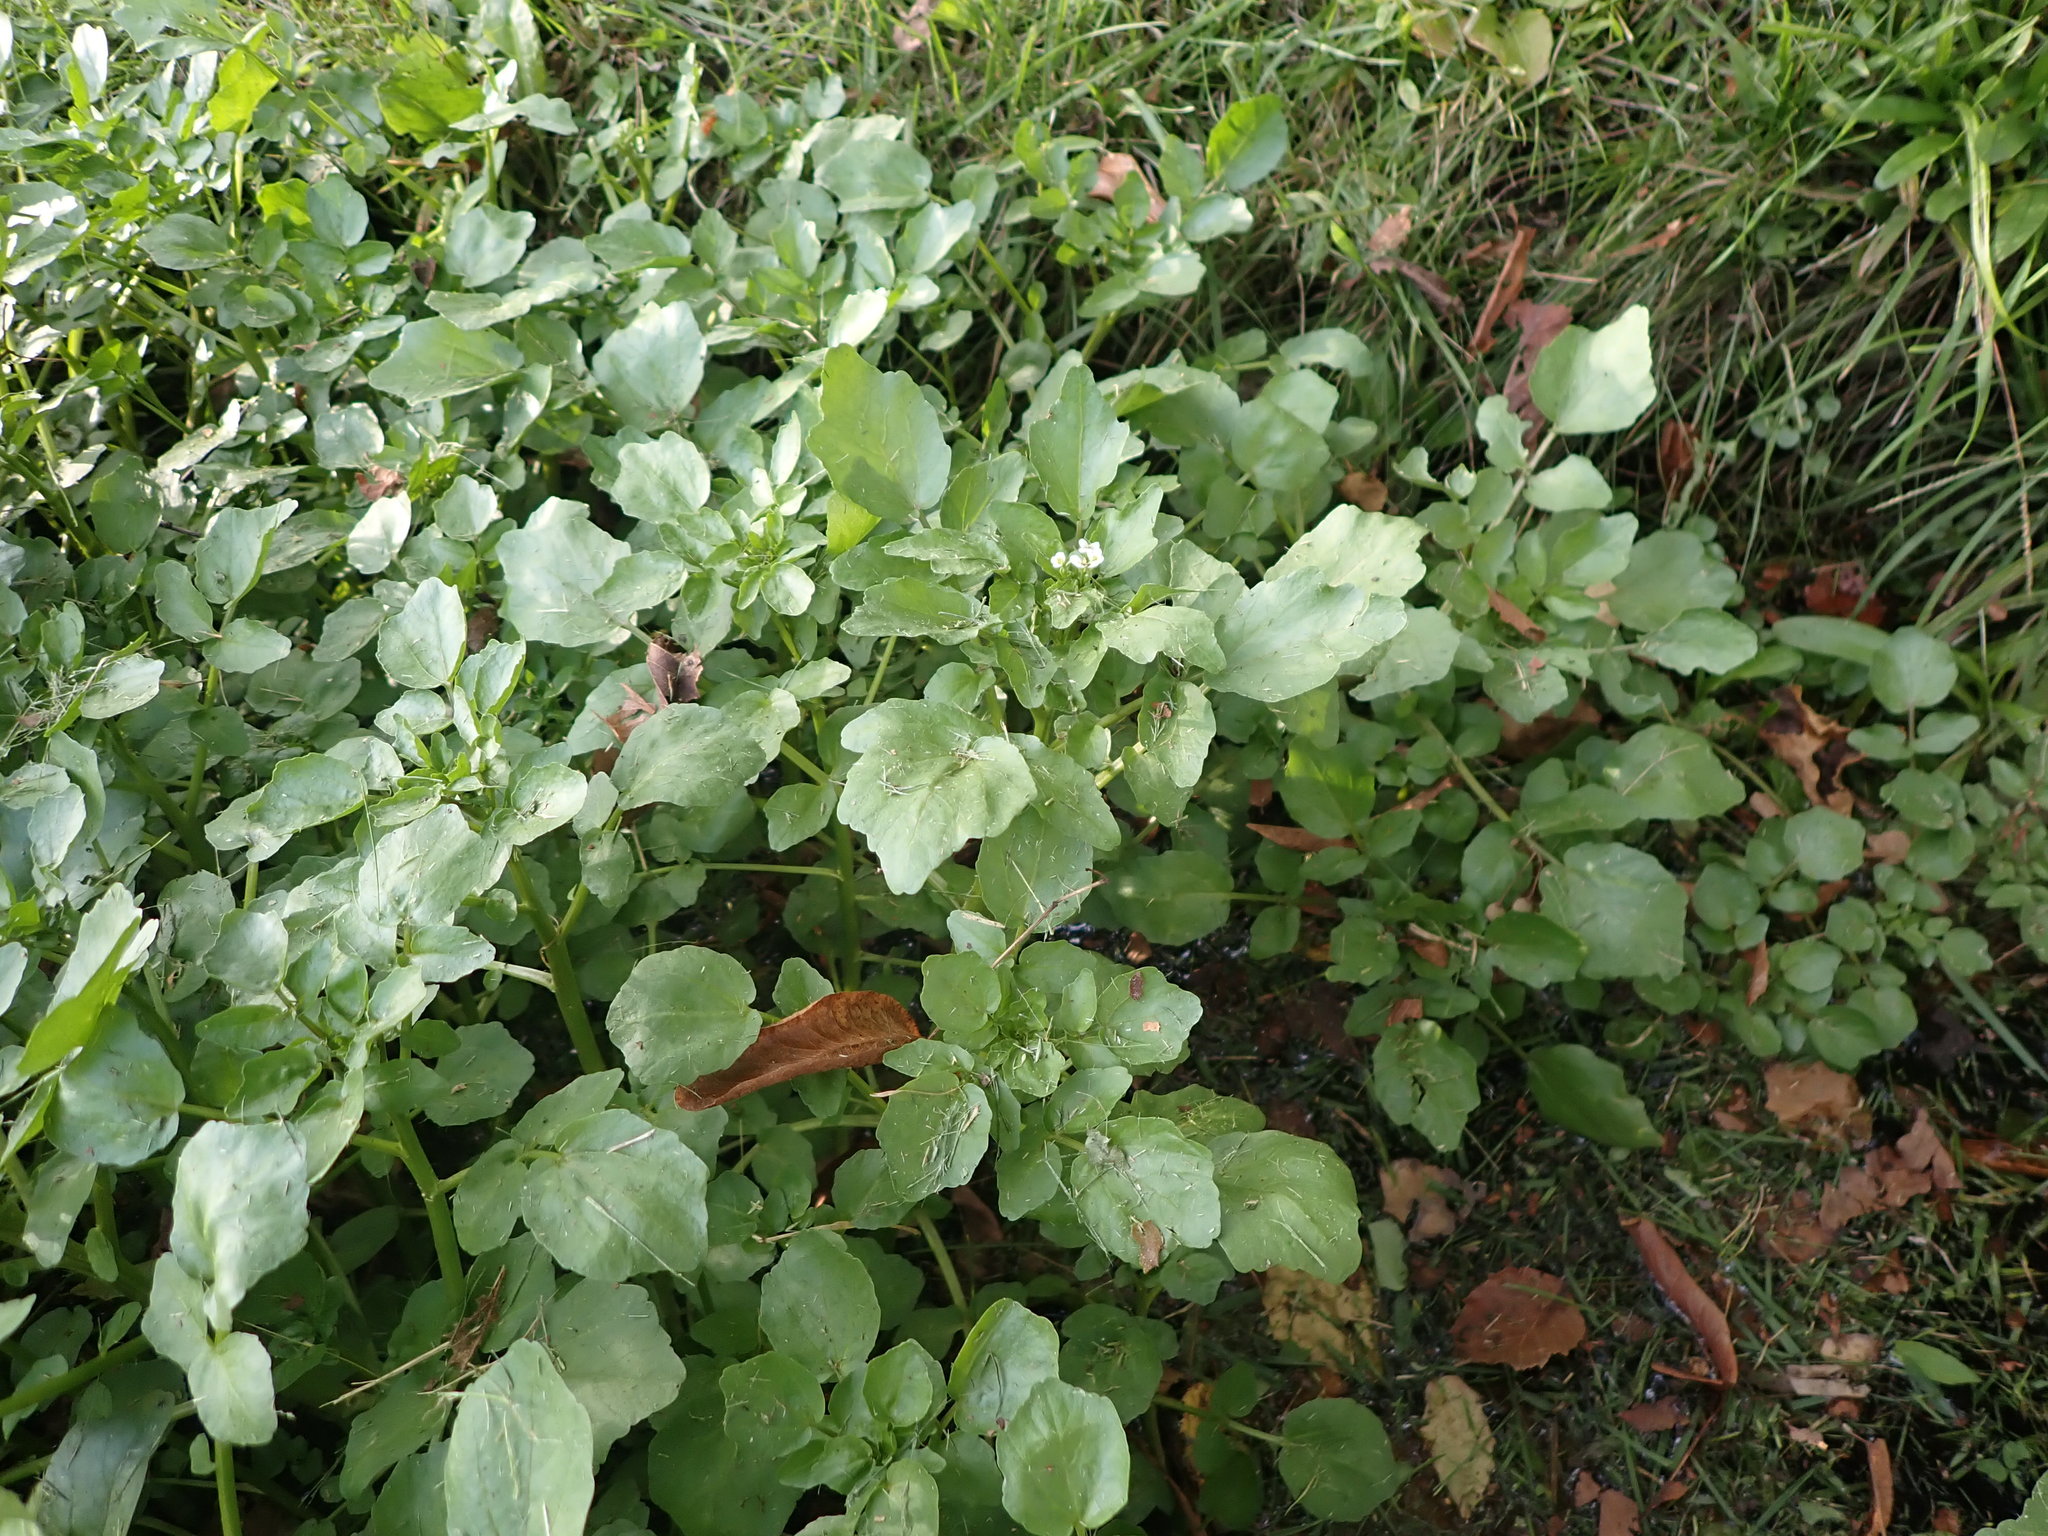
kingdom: Plantae
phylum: Tracheophyta
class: Magnoliopsida
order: Brassicales
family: Brassicaceae
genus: Nasturtium
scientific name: Nasturtium officinale
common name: Watercress
